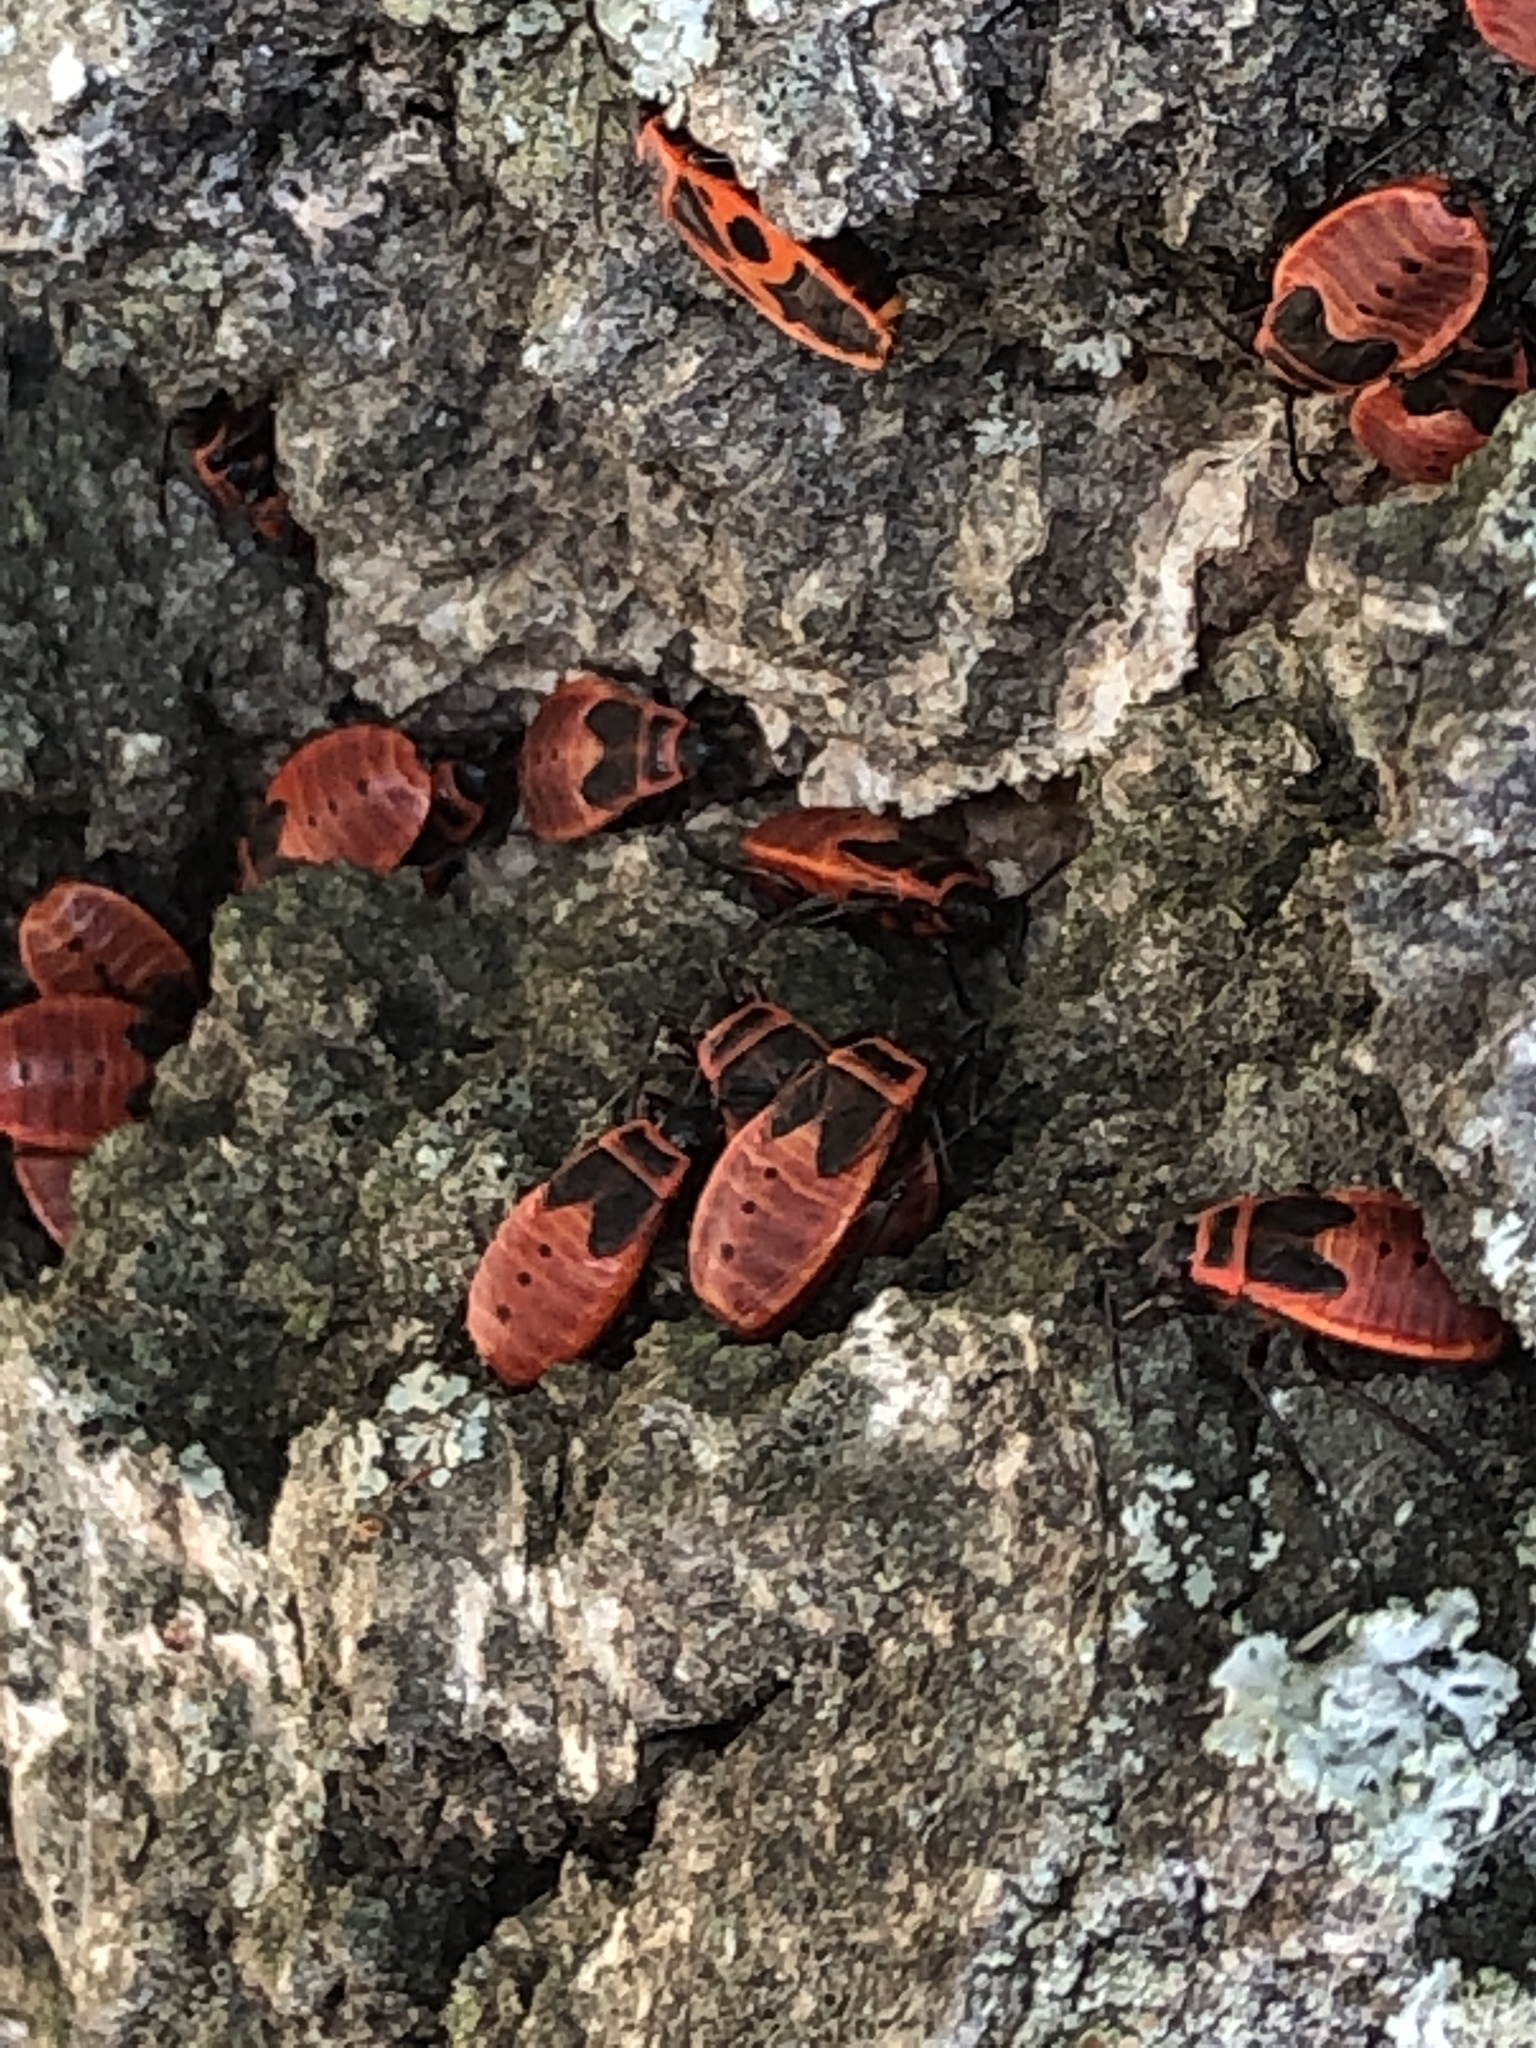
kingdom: Animalia
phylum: Arthropoda
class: Insecta
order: Hemiptera
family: Pyrrhocoridae
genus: Pyrrhocoris
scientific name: Pyrrhocoris apterus
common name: Firebug
